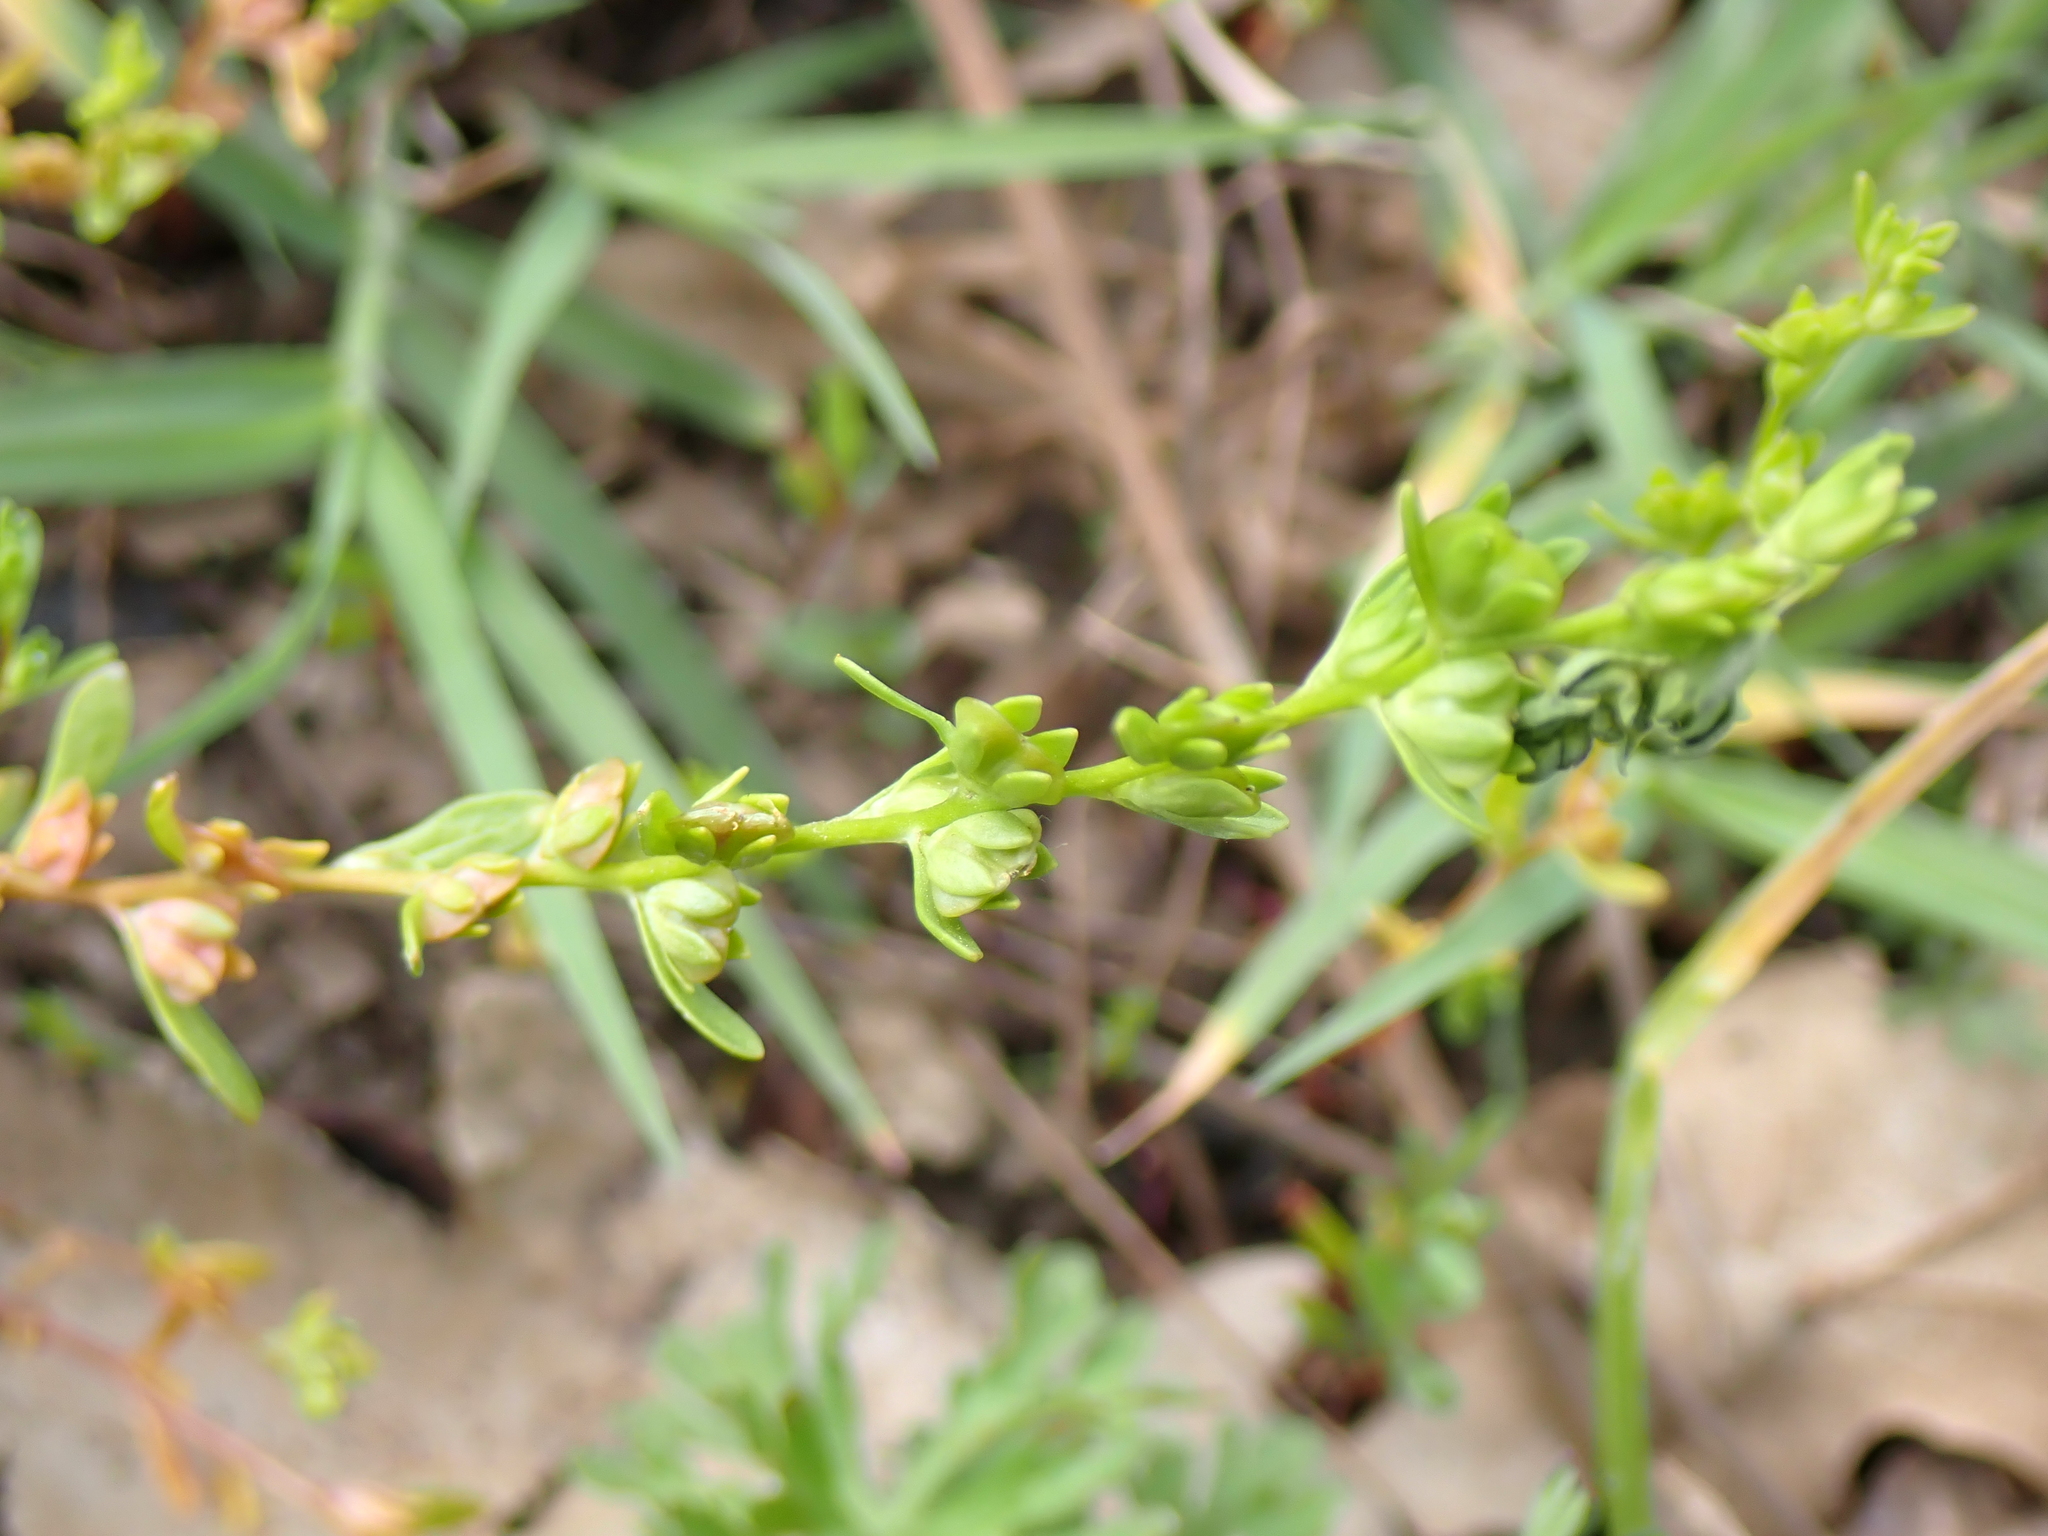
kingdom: Plantae
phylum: Tracheophyta
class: Magnoliopsida
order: Lamiales
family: Plantaginaceae
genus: Veronica
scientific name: Veronica peregrina
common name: Neckweed
